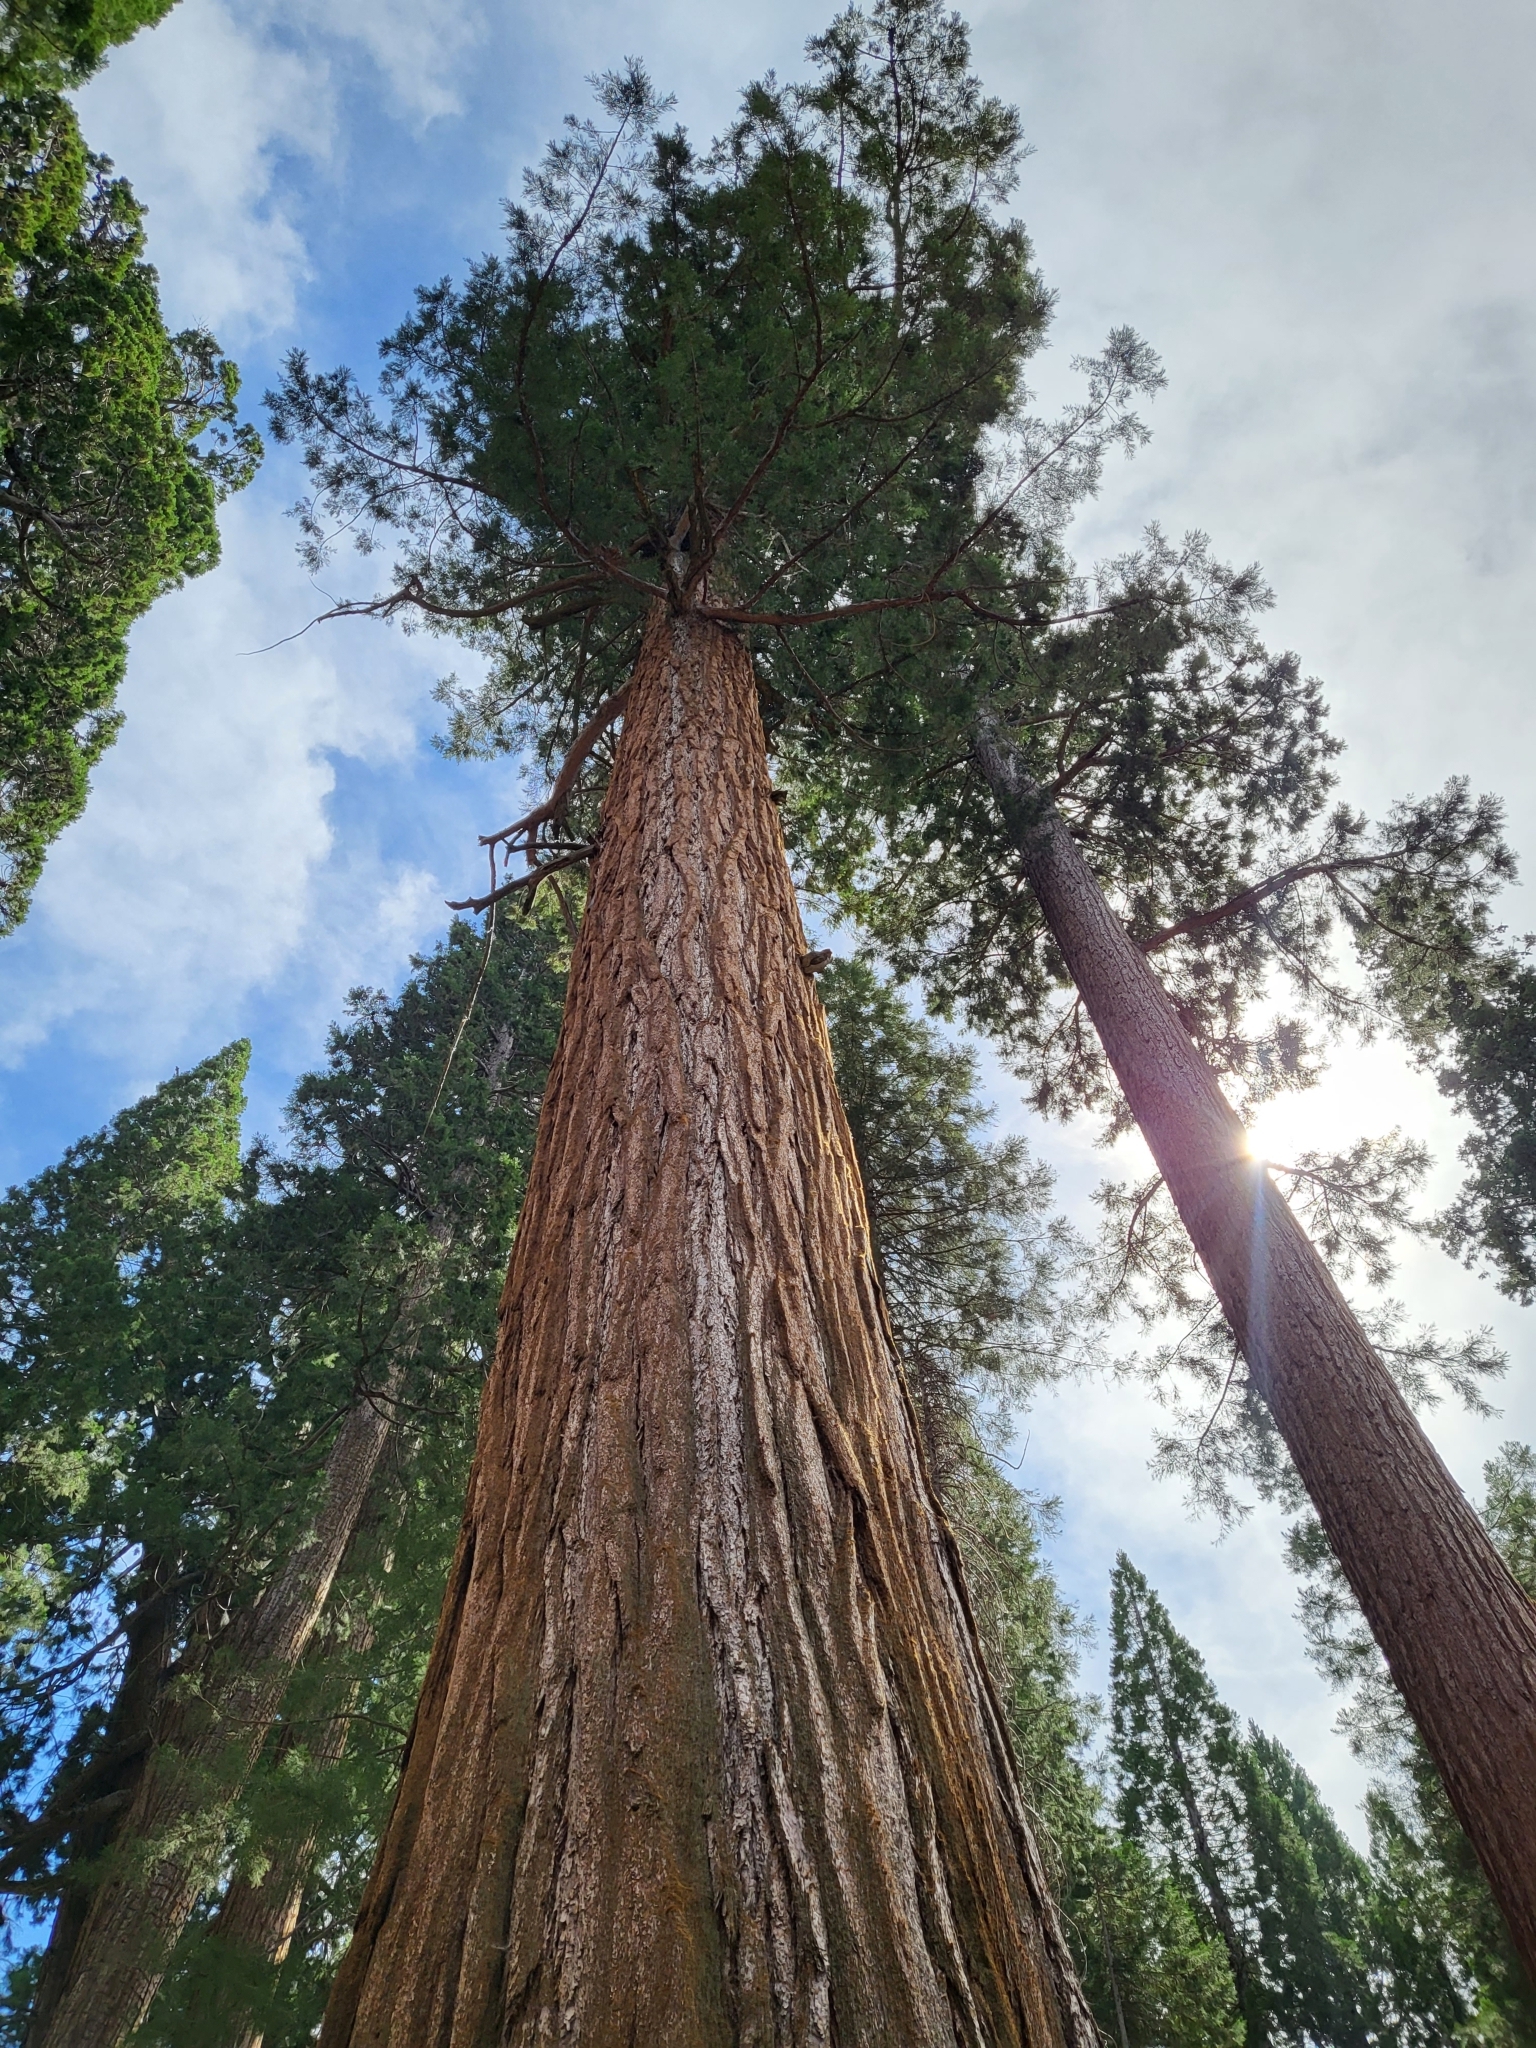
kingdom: Plantae
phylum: Tracheophyta
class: Pinopsida
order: Pinales
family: Cupressaceae
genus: Sequoiadendron
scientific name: Sequoiadendron giganteum
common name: Wellingtonia
